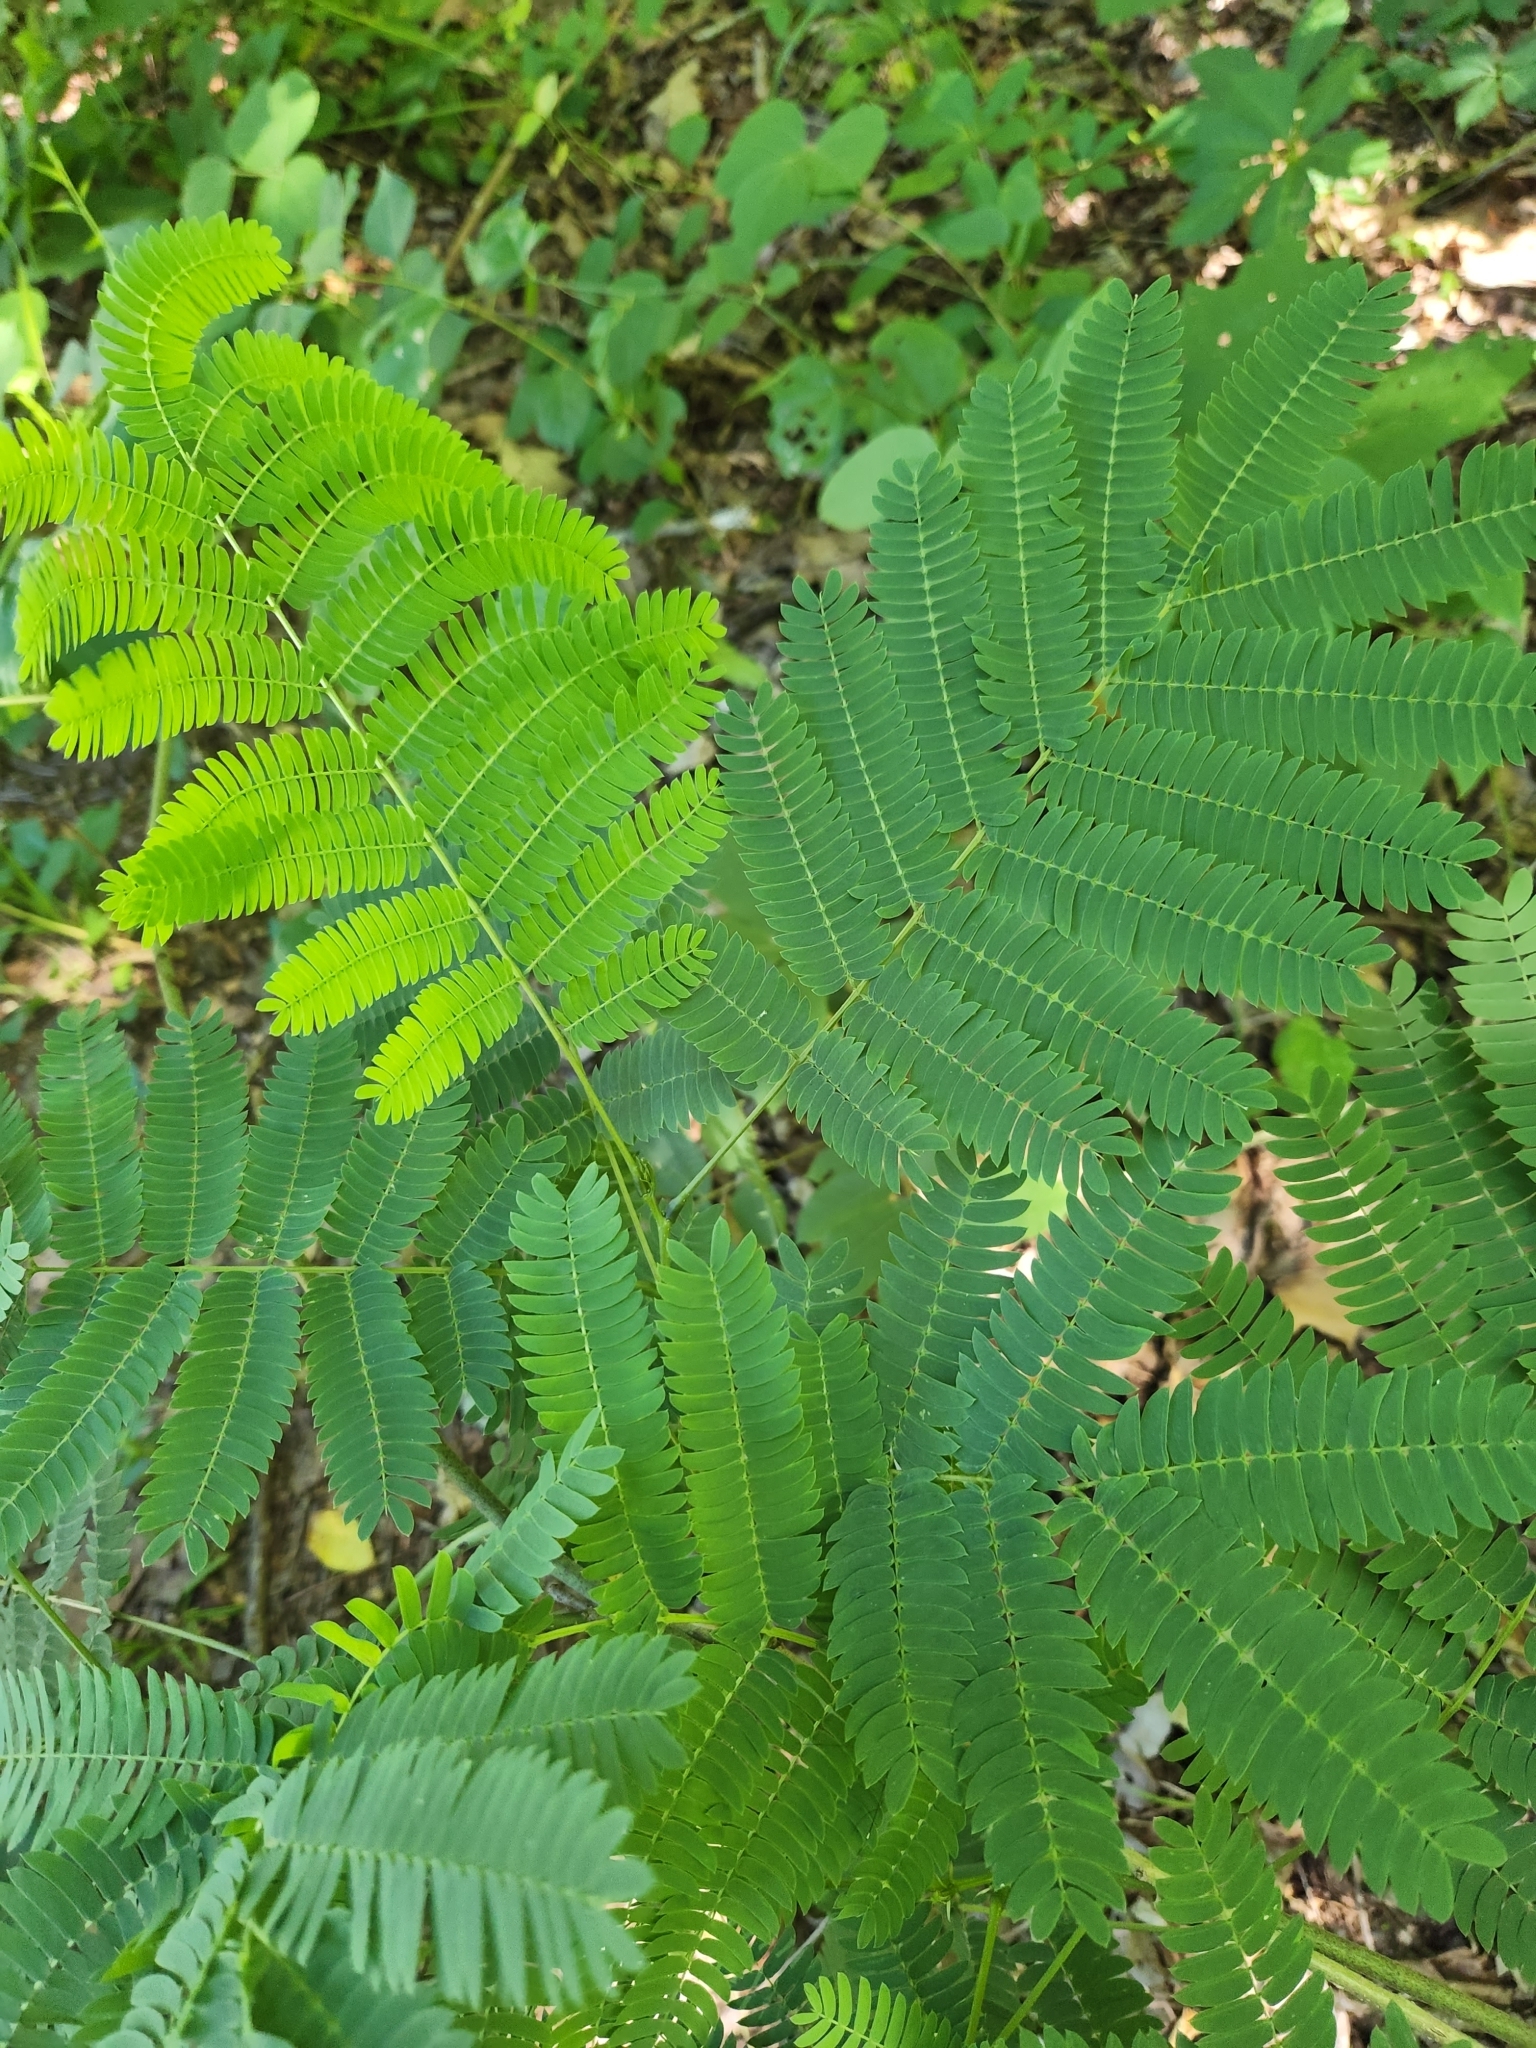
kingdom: Plantae
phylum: Tracheophyta
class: Magnoliopsida
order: Fabales
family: Fabaceae
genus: Albizia
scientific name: Albizia julibrissin
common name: Silktree
